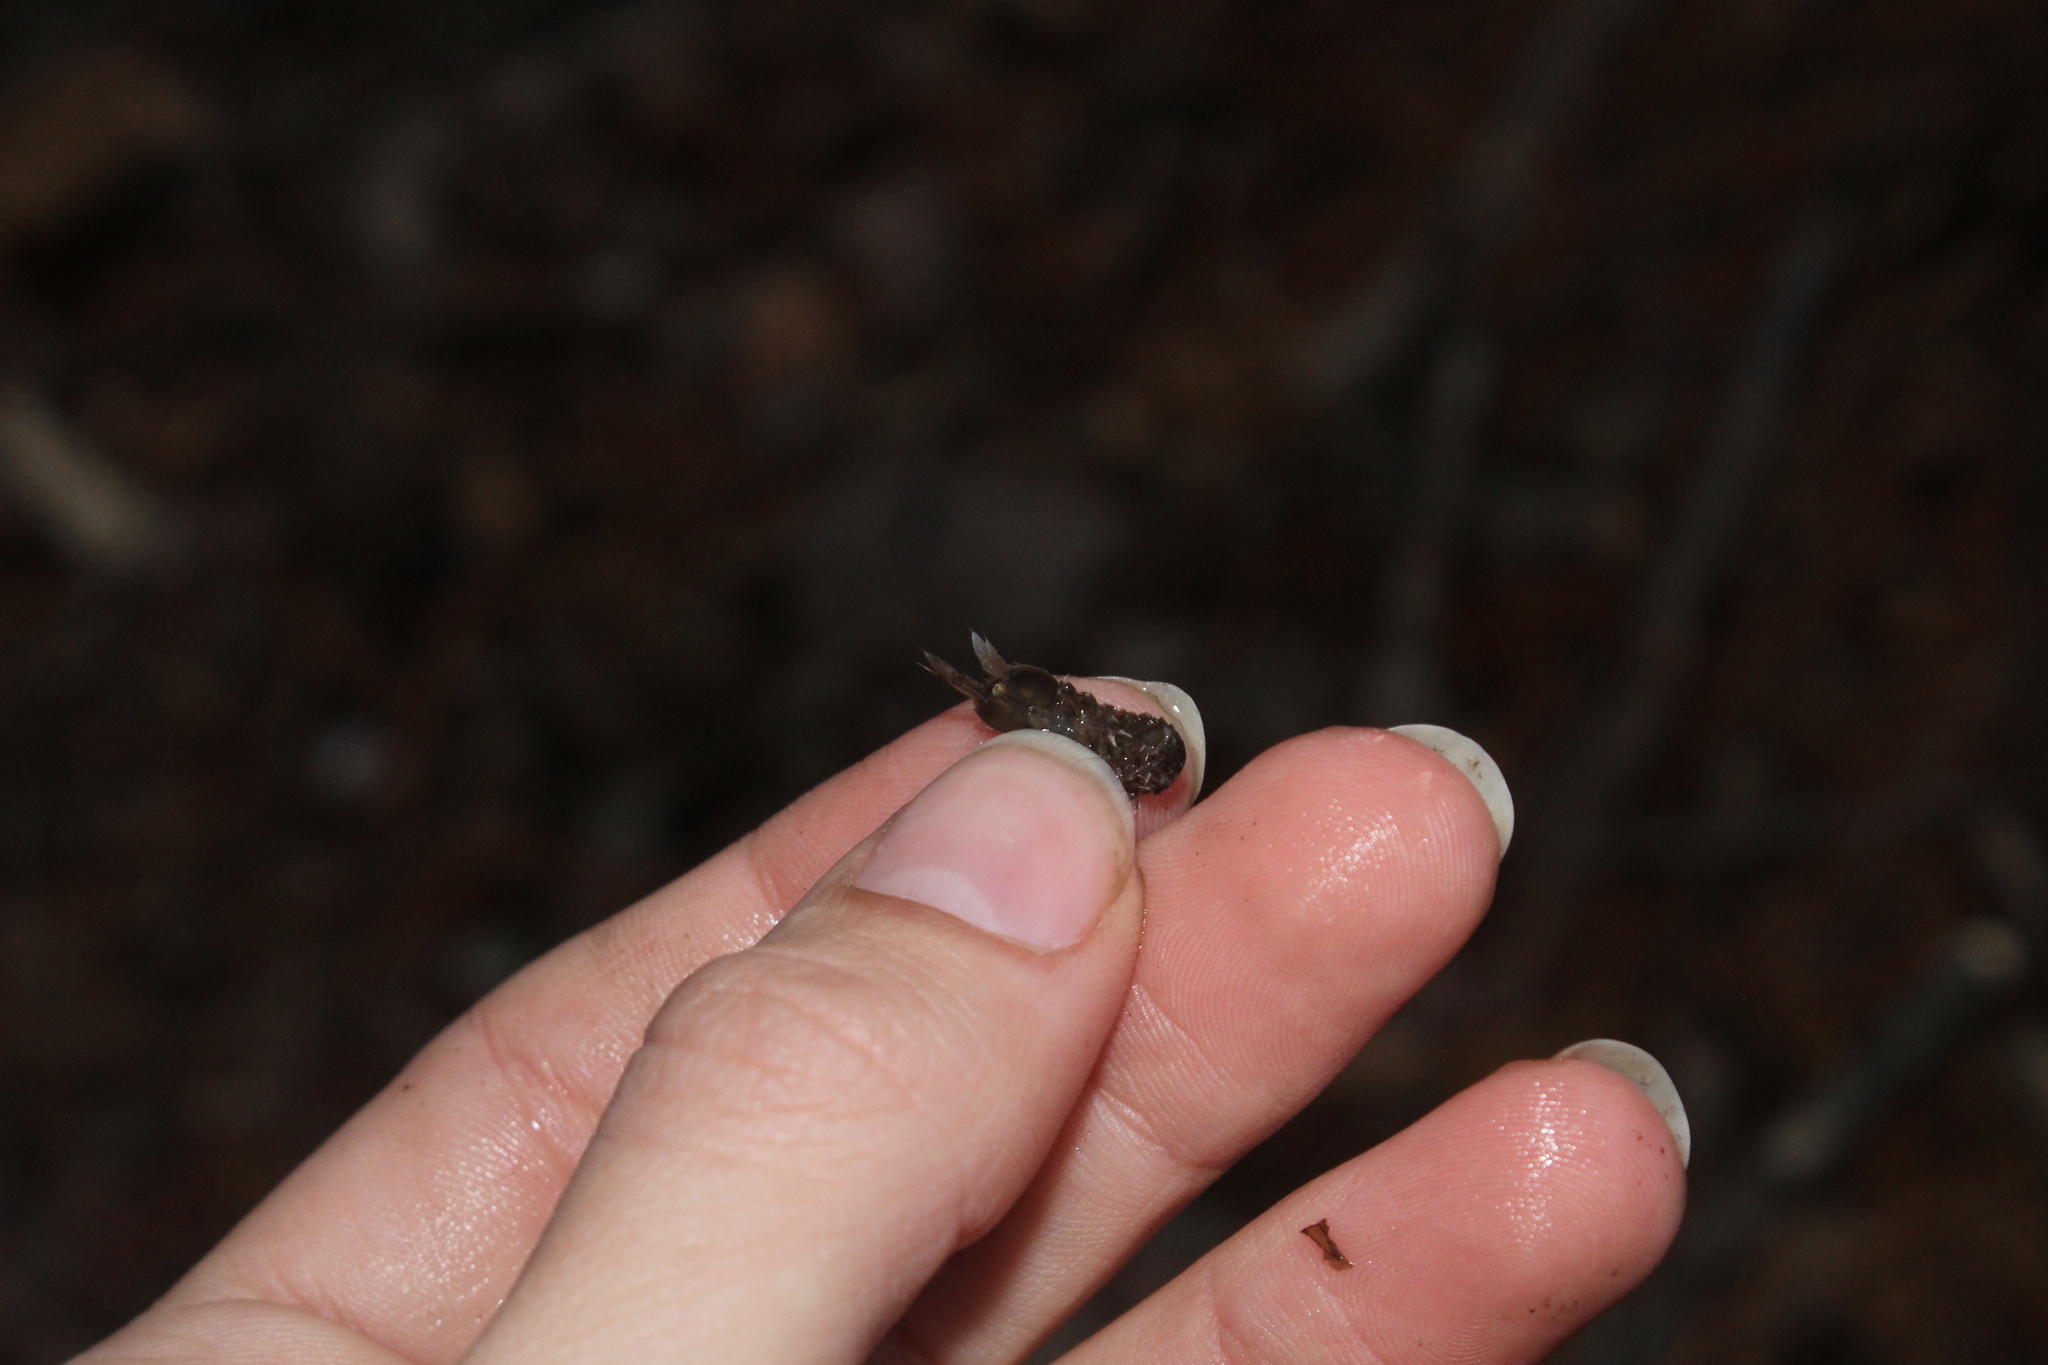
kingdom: Animalia
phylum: Arthropoda
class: Malacostraca
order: Isopoda
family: Asellidae
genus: Caecidotea
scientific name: Caecidotea
